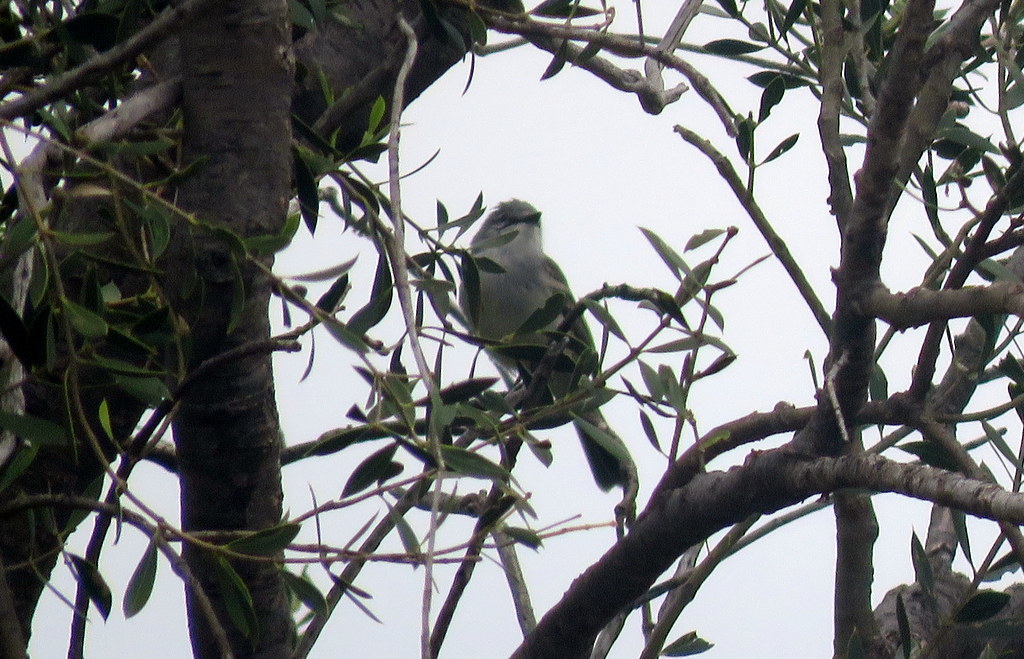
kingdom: Animalia
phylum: Chordata
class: Aves
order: Passeriformes
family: Tyrannidae
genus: Suiriri
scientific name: Suiriri suiriri
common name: Suiriri flycatcher
